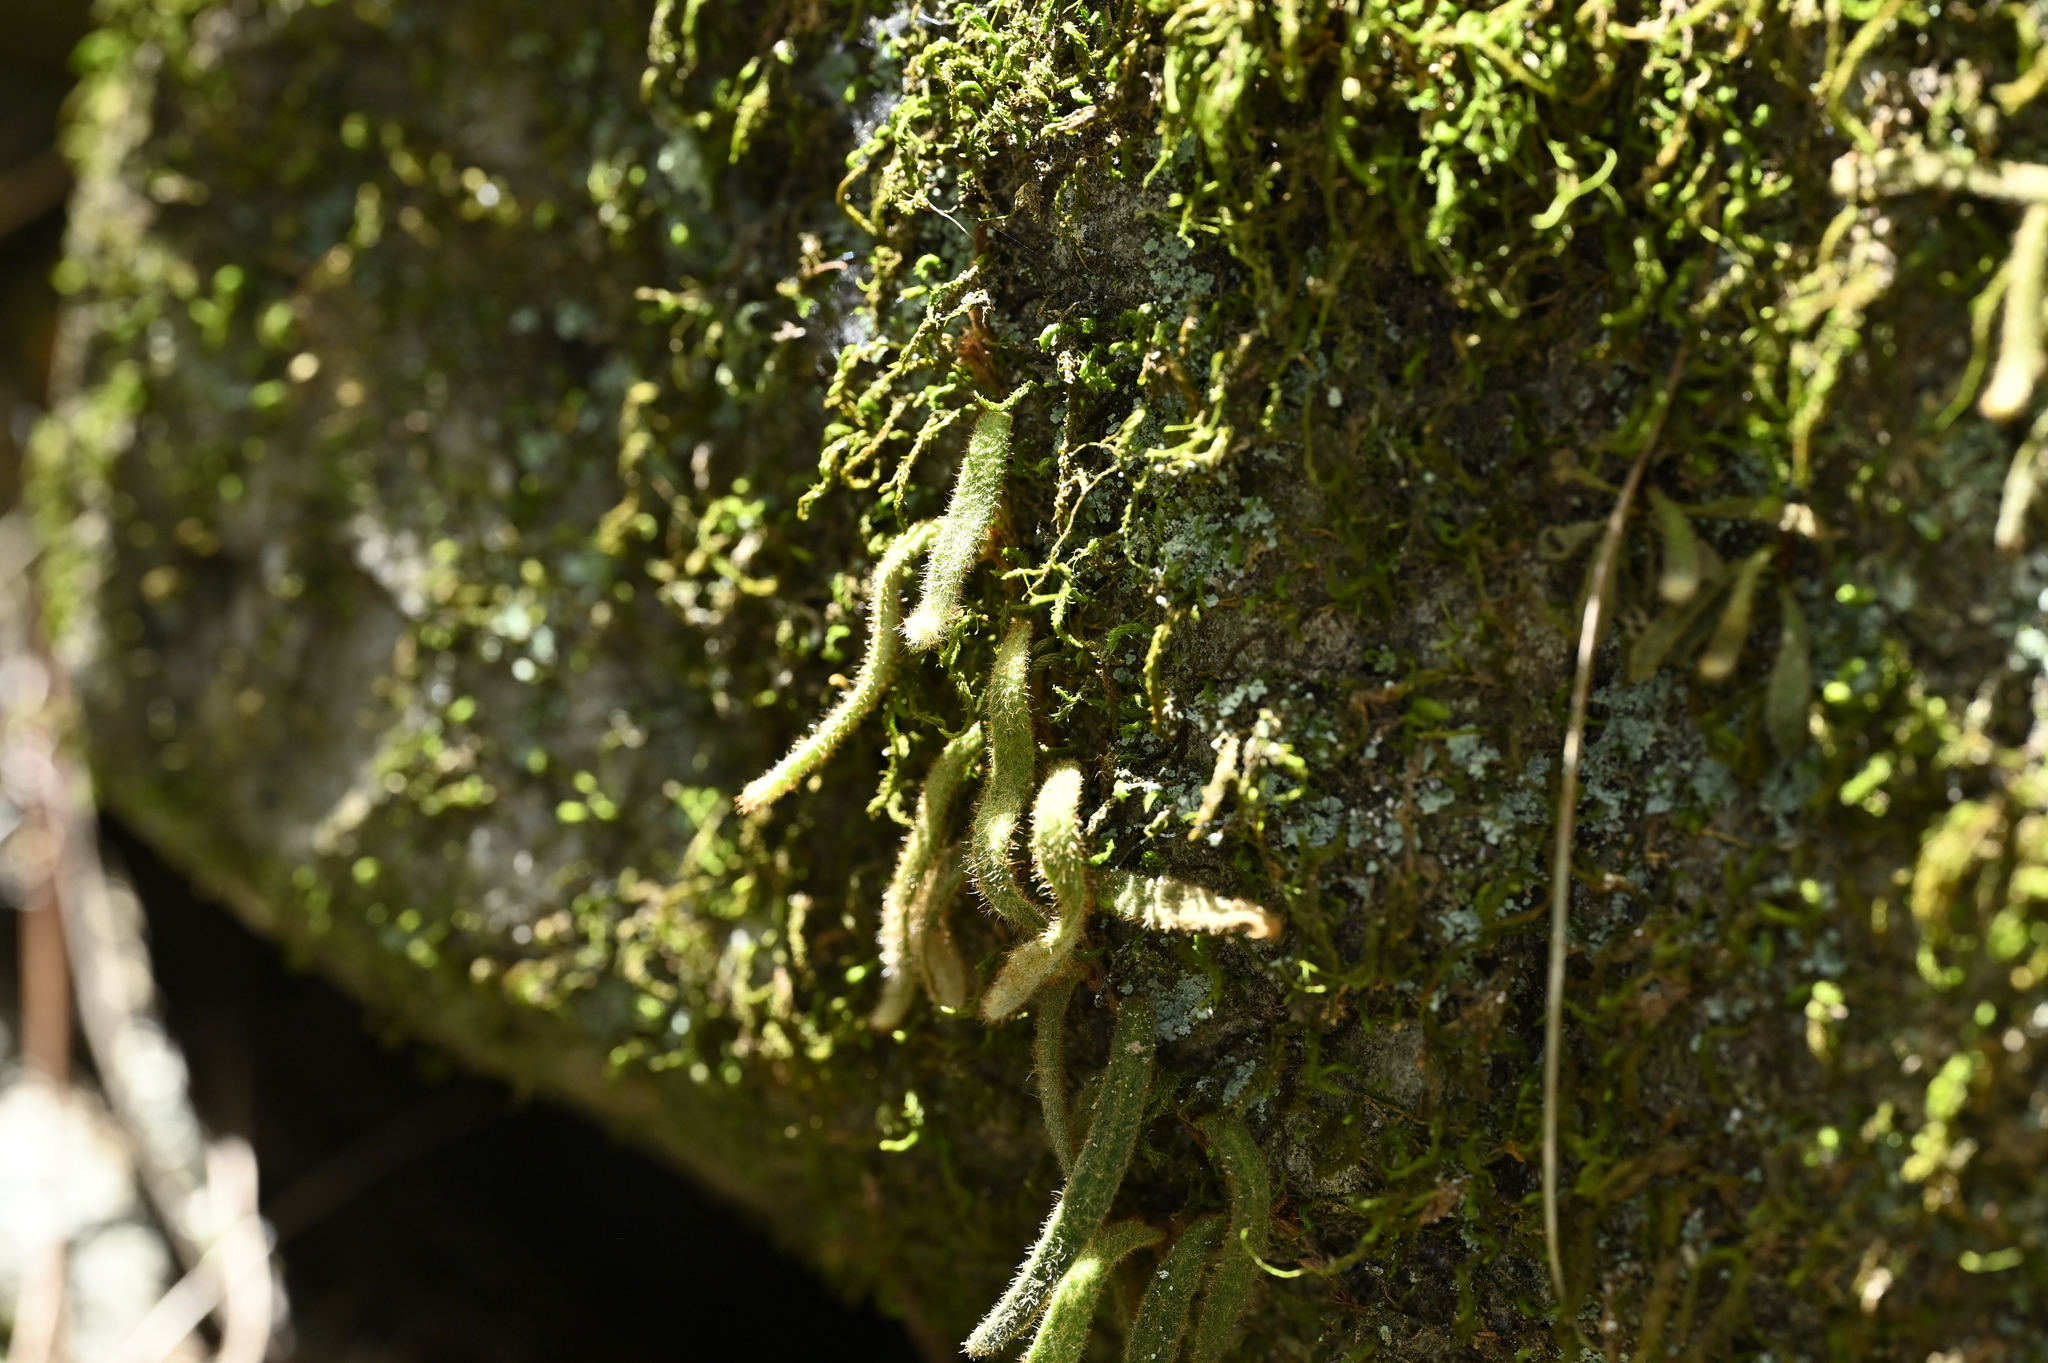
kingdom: Plantae
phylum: Tracheophyta
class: Polypodiopsida
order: Polypodiales
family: Polypodiaceae
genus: Pyrrosia
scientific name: Pyrrosia linearifolia
